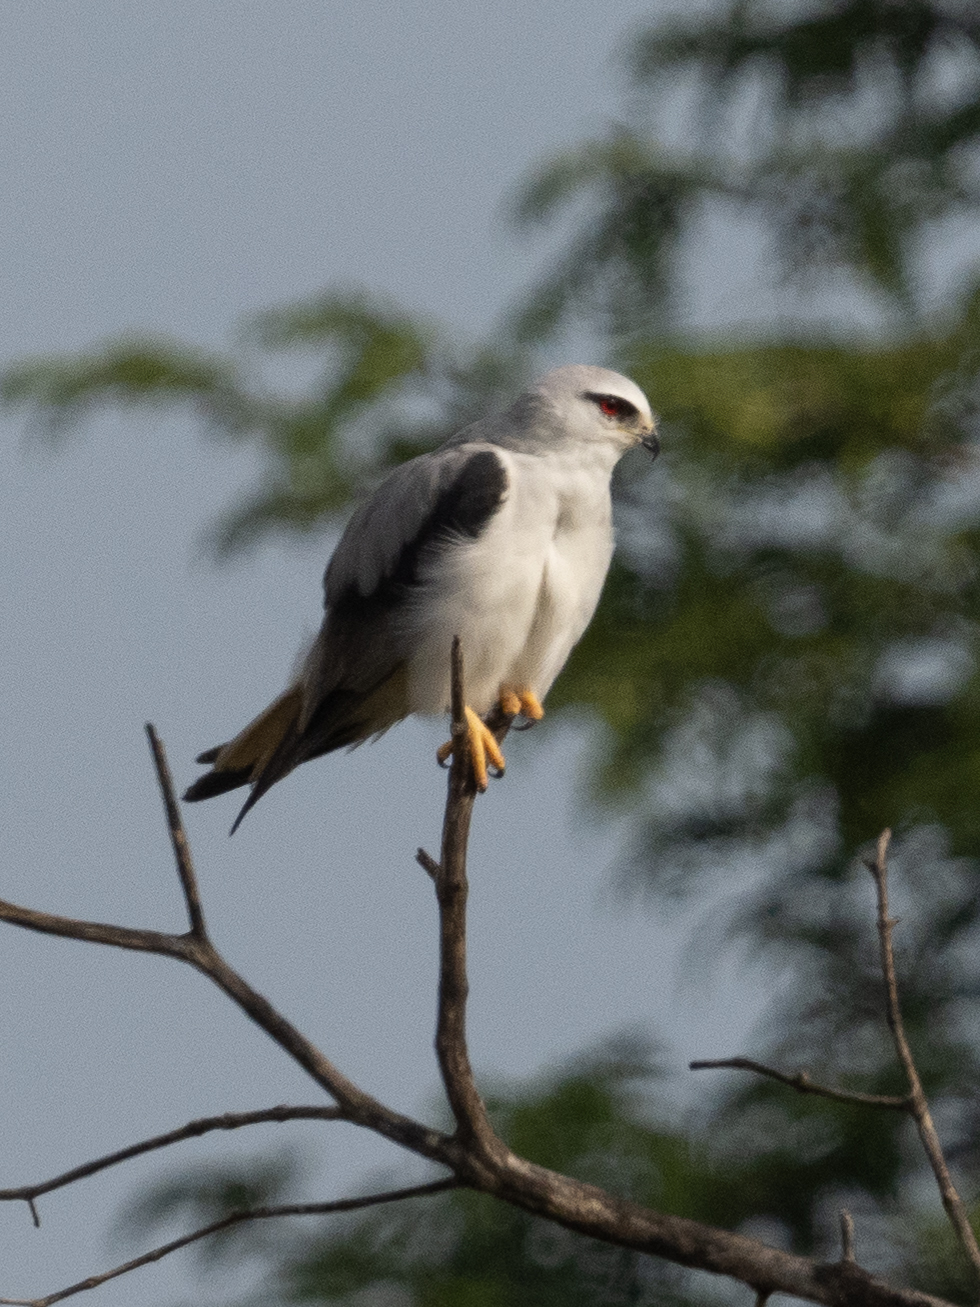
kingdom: Animalia
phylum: Chordata
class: Aves
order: Accipitriformes
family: Accipitridae
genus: Elanus
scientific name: Elanus caeruleus
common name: Black-winged kite
